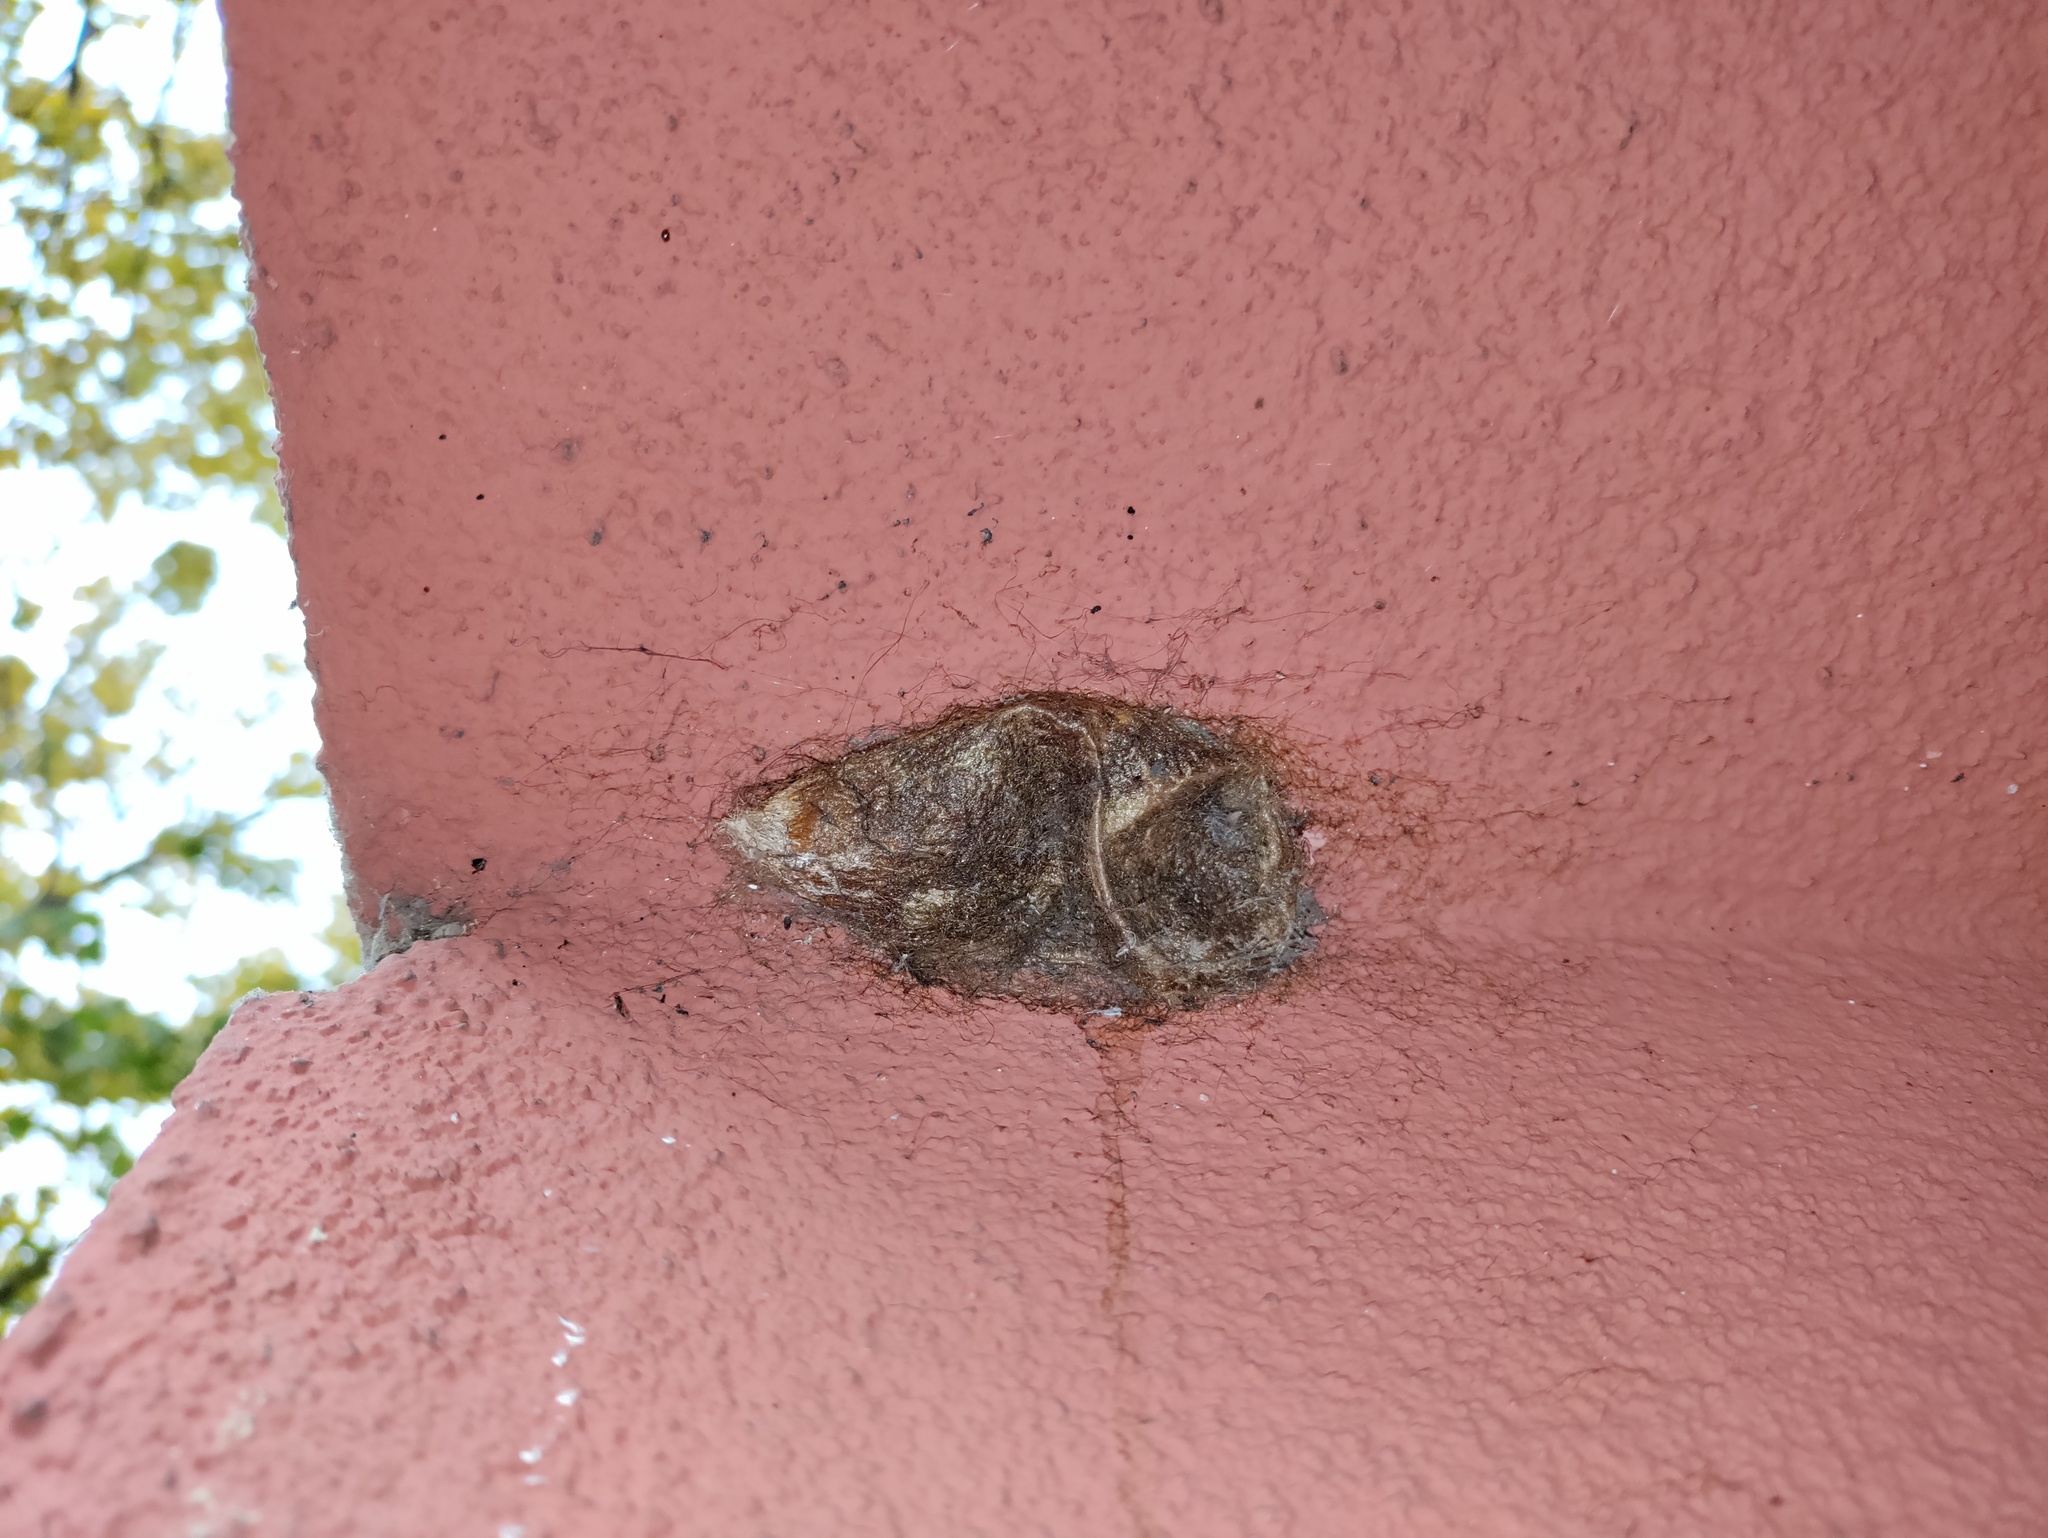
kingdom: Animalia
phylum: Arthropoda
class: Insecta
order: Lepidoptera
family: Saturniidae
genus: Saturnia
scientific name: Saturnia pyri
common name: Great peacock moth
